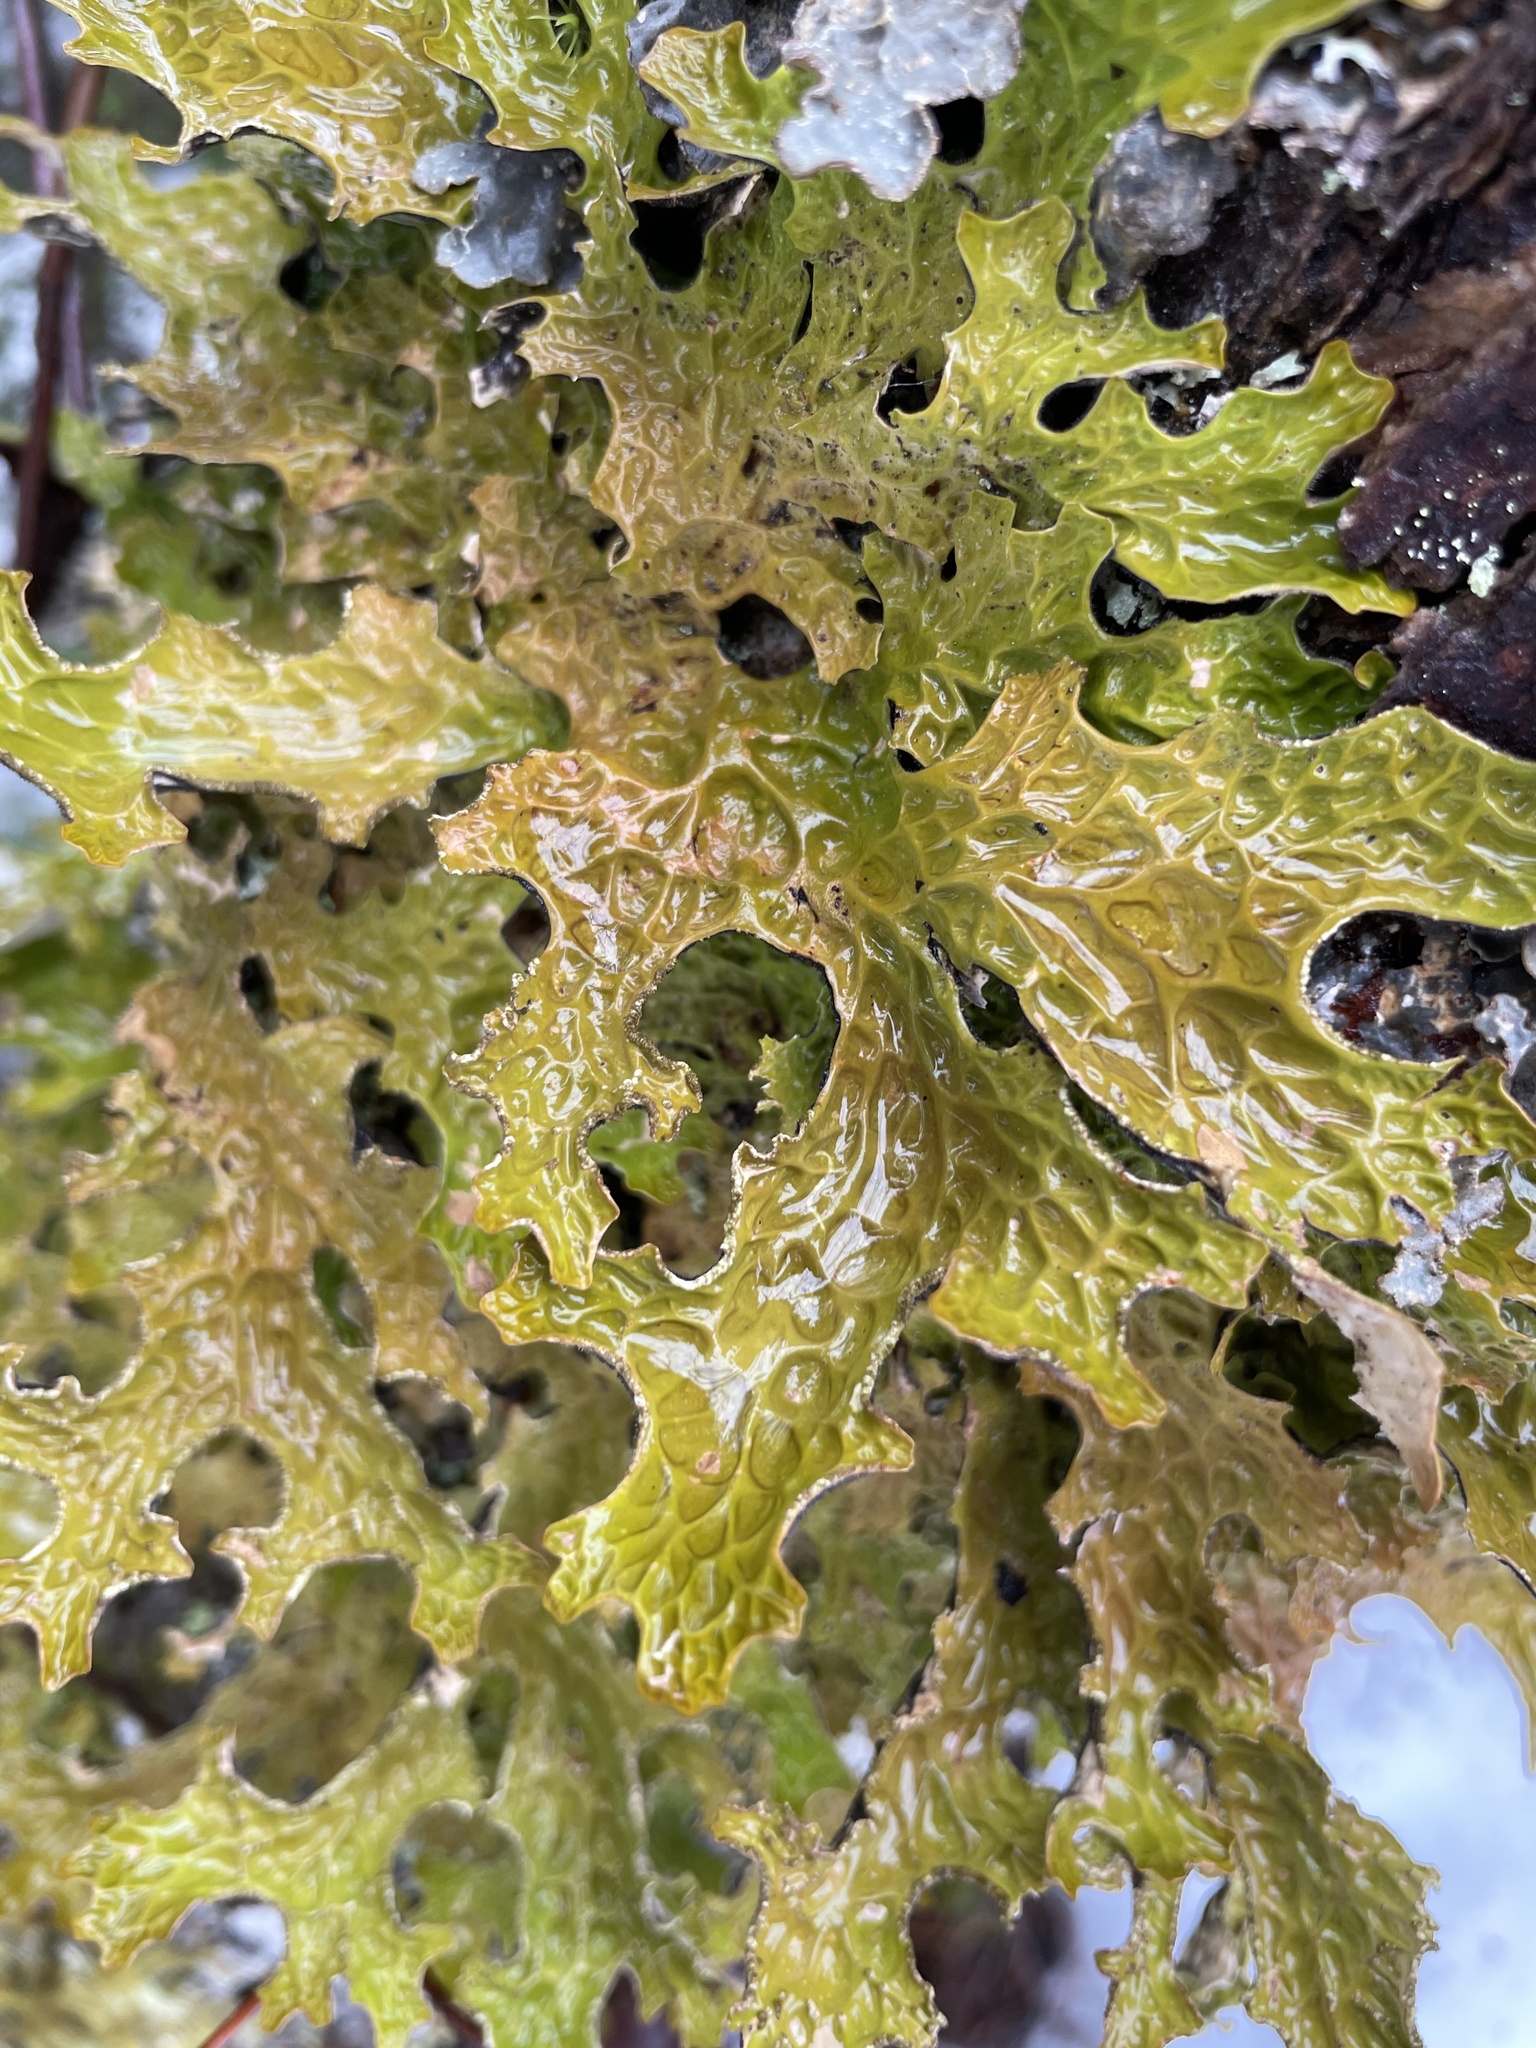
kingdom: Fungi
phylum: Ascomycota
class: Lecanoromycetes
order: Peltigerales
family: Lobariaceae
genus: Lobaria
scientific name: Lobaria pulmonaria
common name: Lungwort
